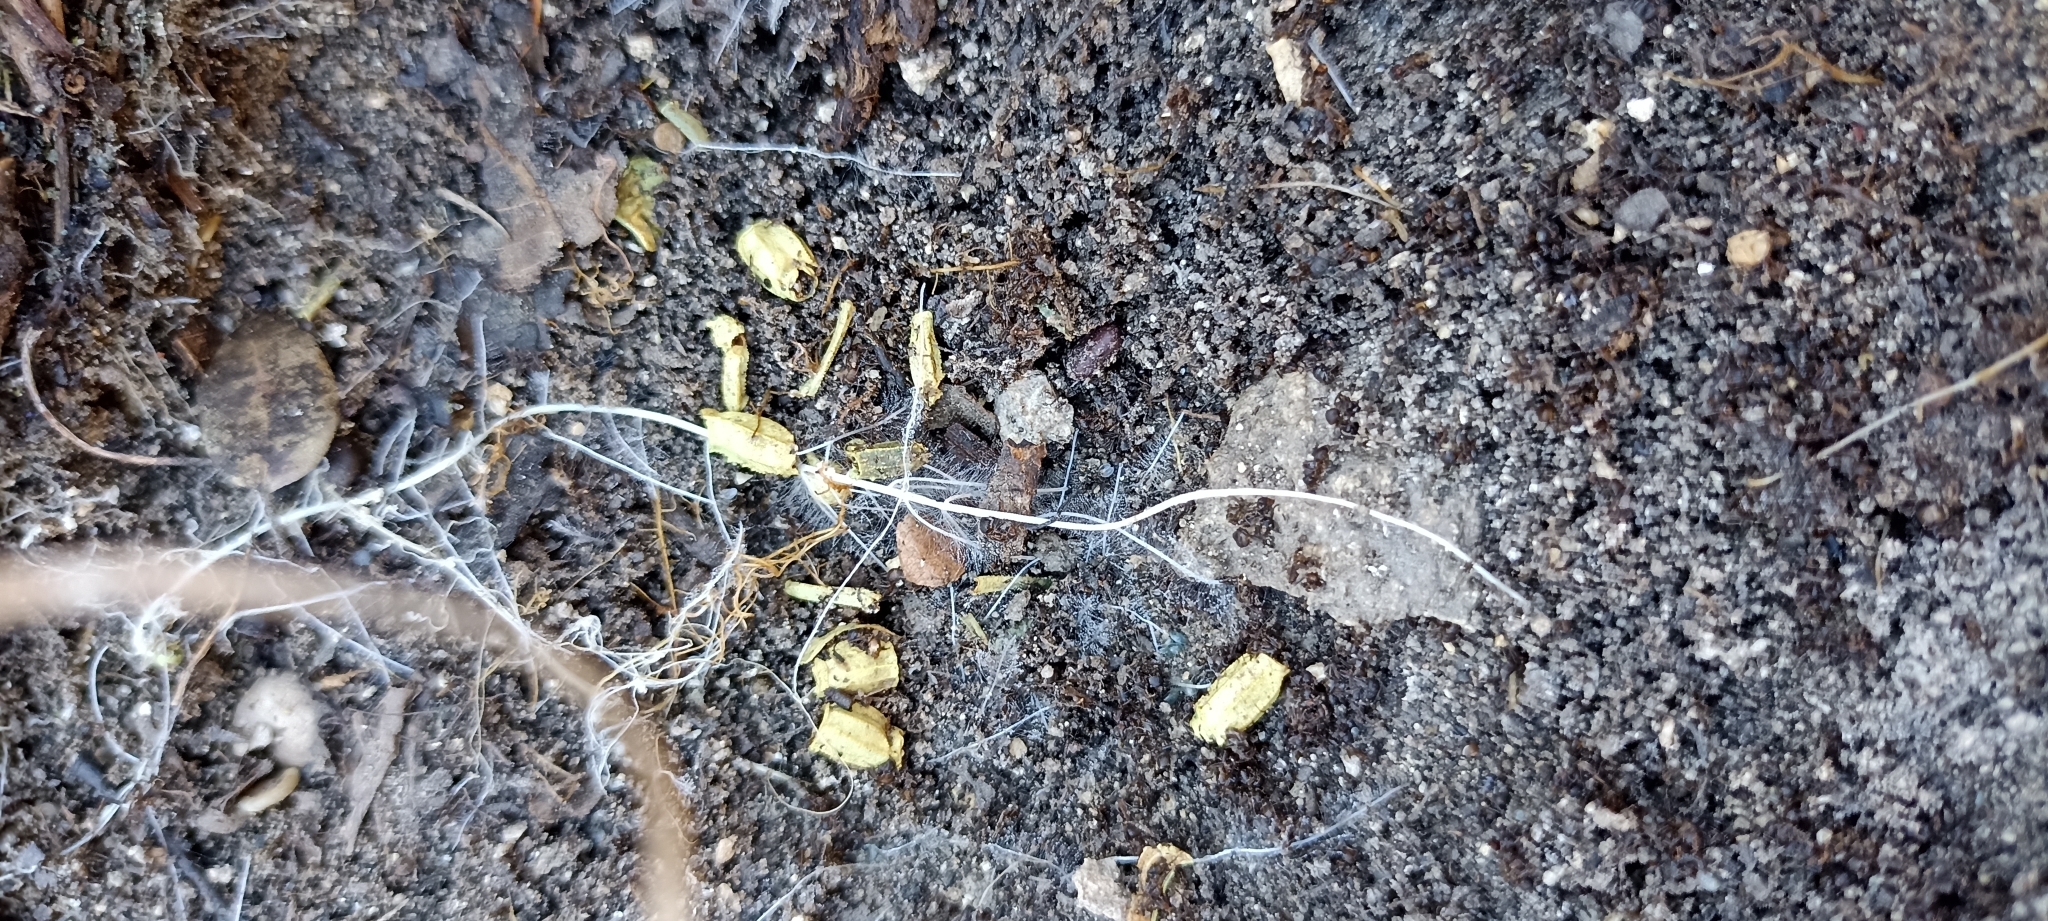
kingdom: Animalia
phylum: Arthropoda
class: Arachnida
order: Scorpiones
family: Buthidae
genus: Buthus
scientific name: Buthus occitanus
